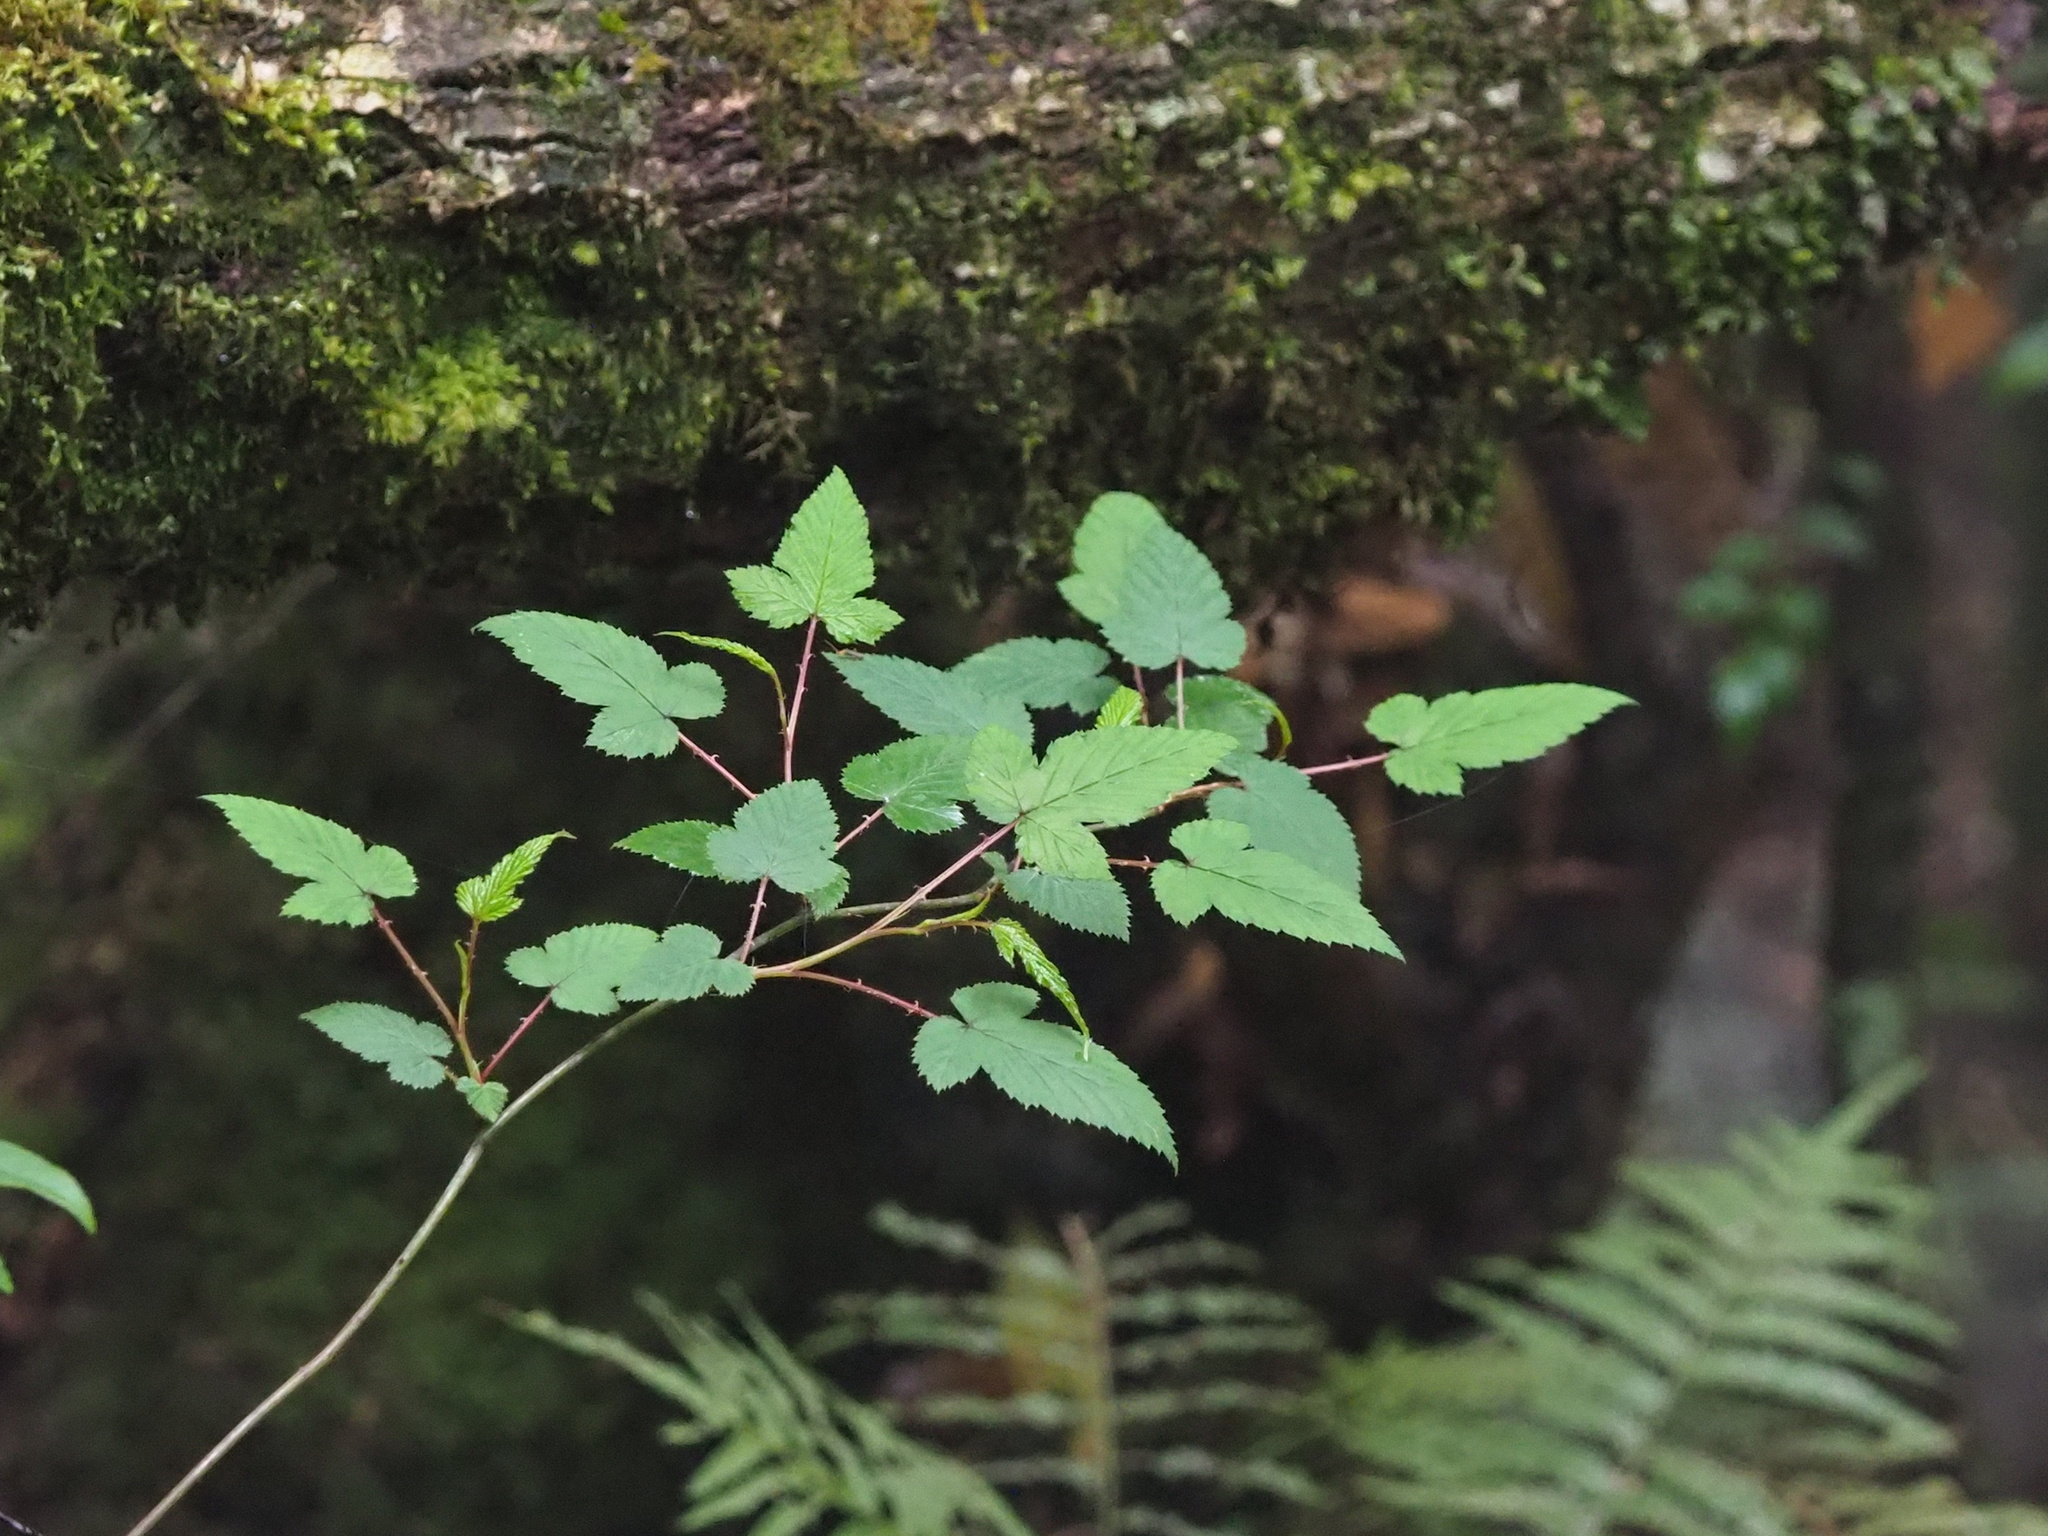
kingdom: Plantae
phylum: Tracheophyta
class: Magnoliopsida
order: Rosales
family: Rosaceae
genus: Rubus
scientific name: Rubus subcrataegifolius
